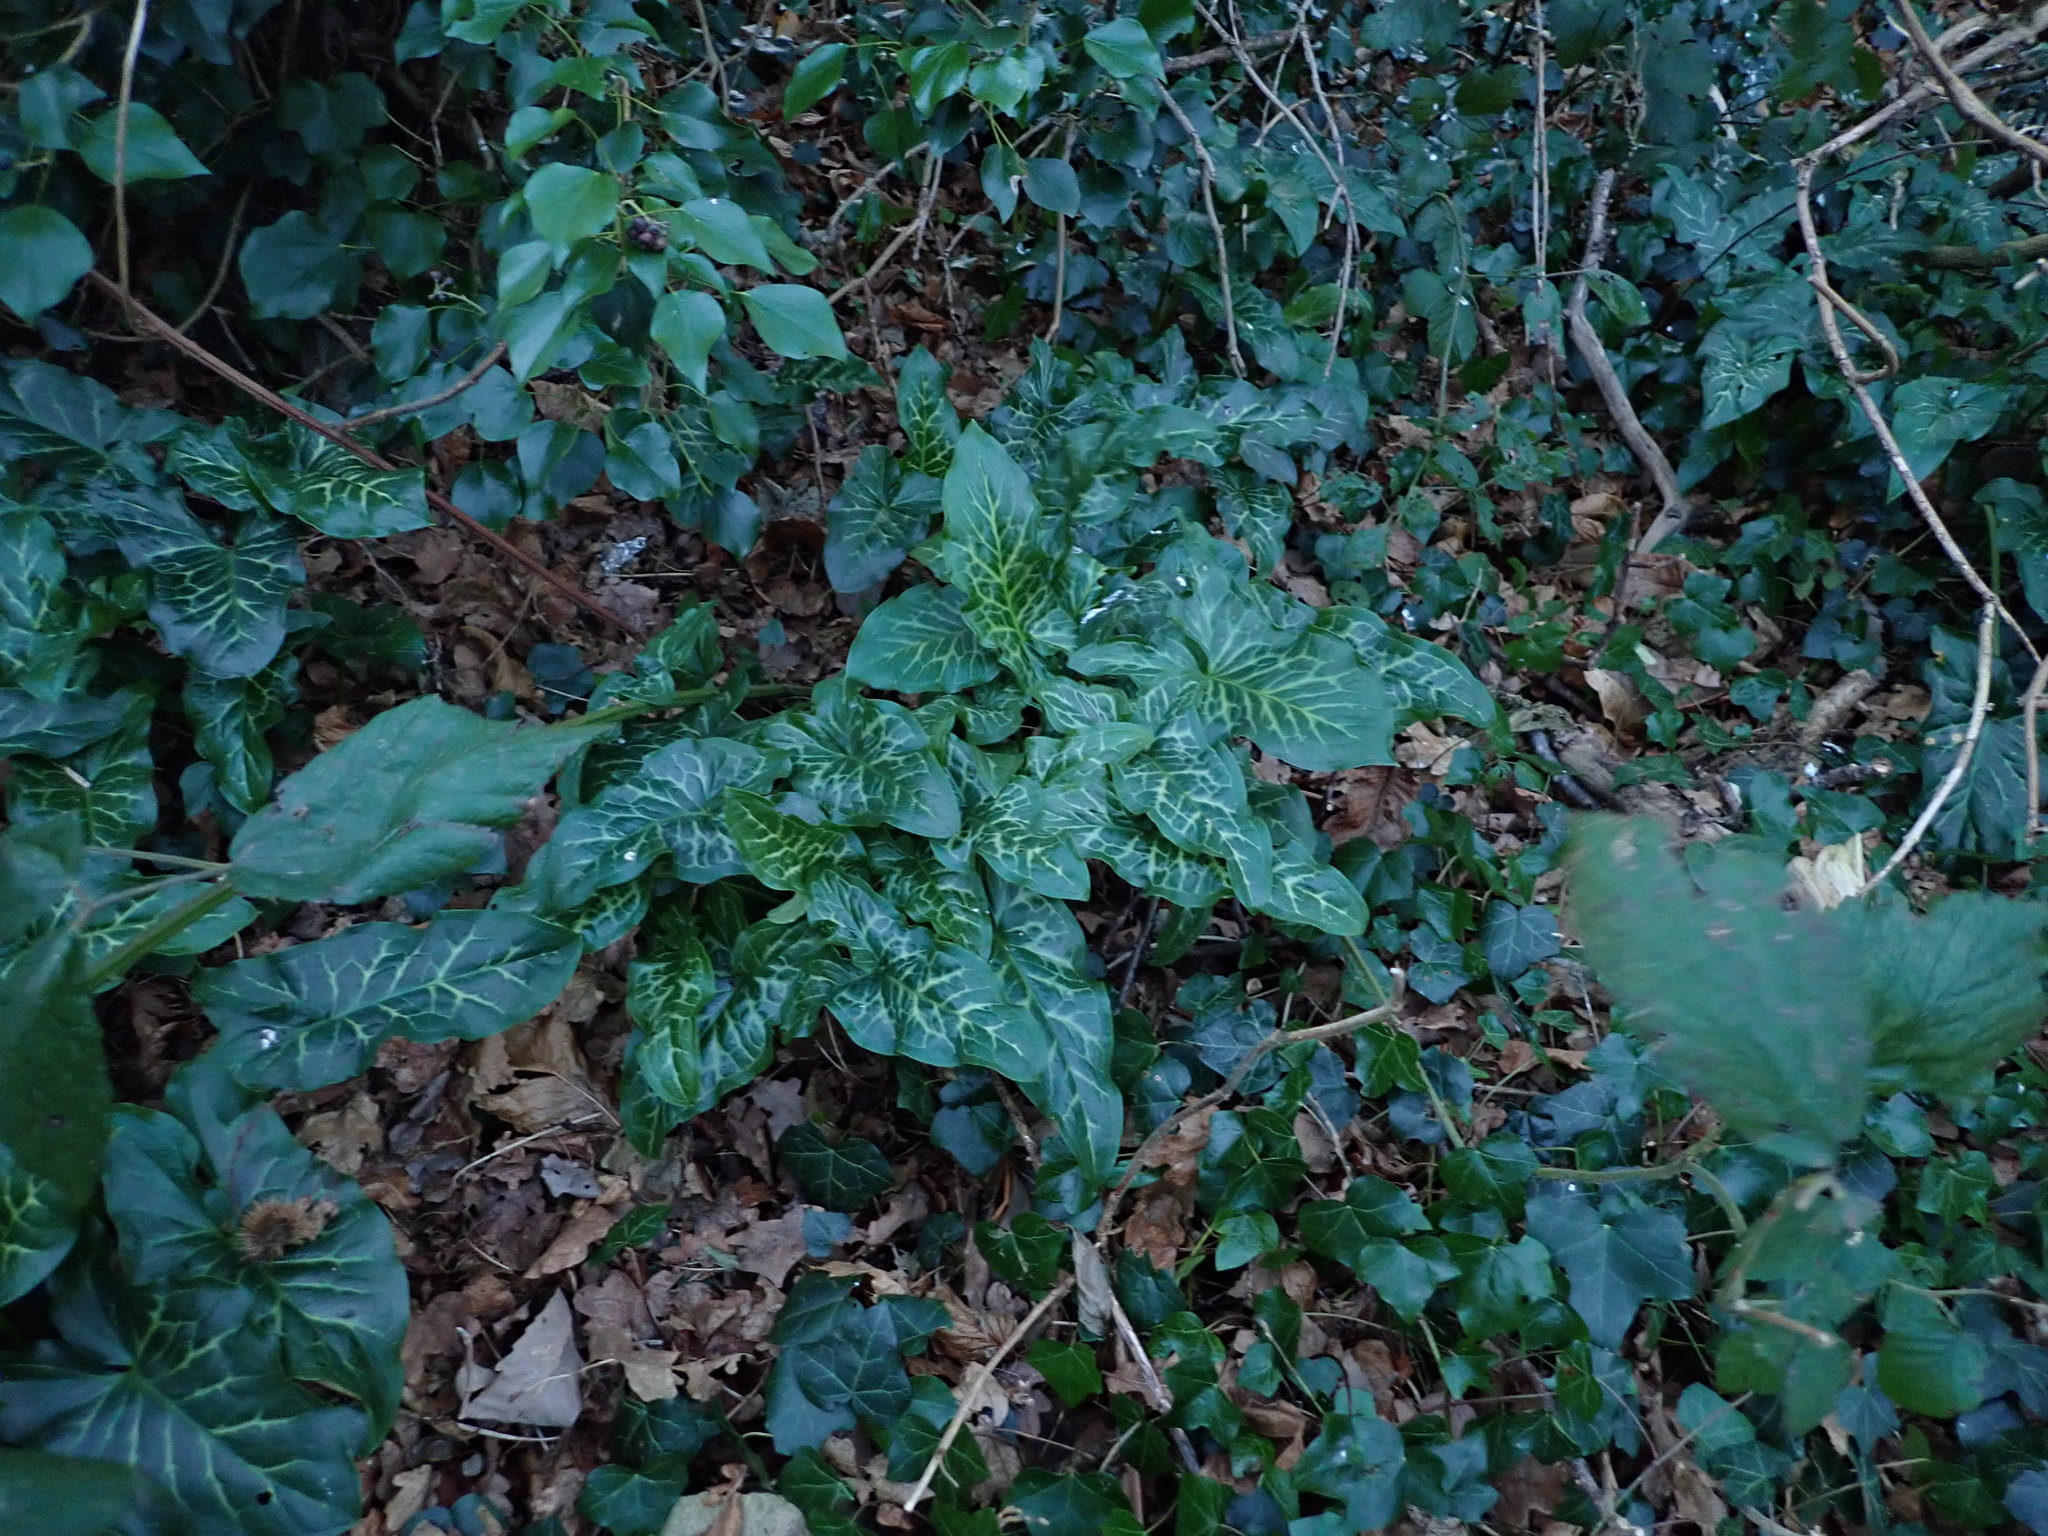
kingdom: Plantae
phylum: Tracheophyta
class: Liliopsida
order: Alismatales
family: Araceae
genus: Arum
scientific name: Arum italicum
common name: Italian lords-and-ladies
